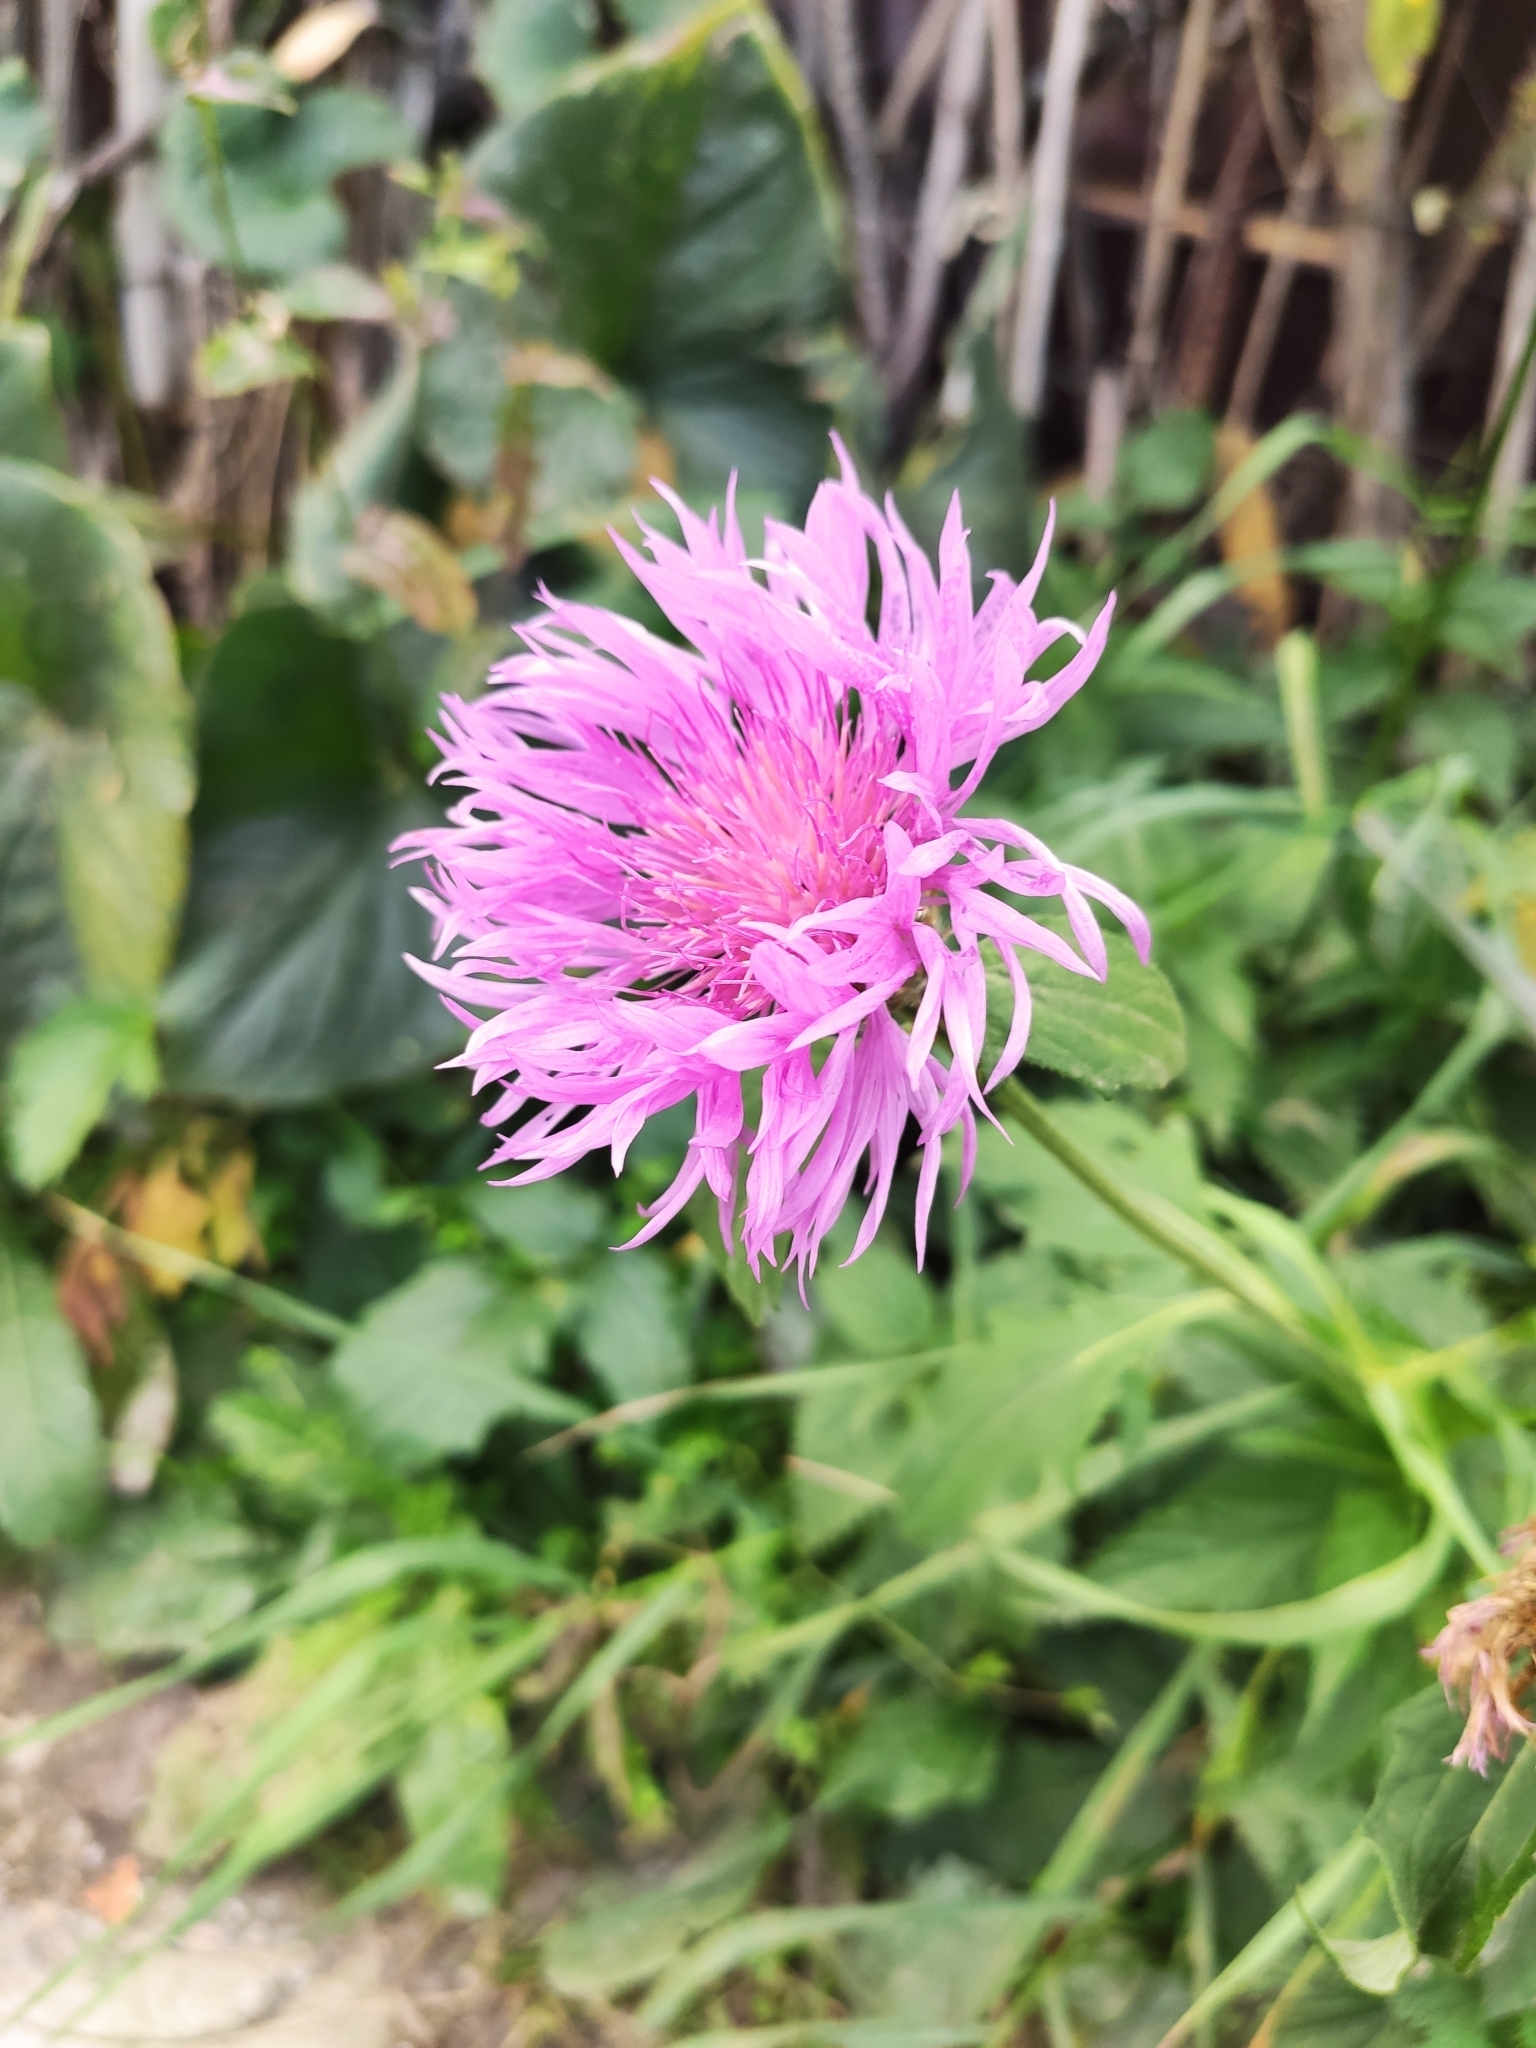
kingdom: Plantae
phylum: Tracheophyta
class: Magnoliopsida
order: Asterales
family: Asteraceae
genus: Psephellus
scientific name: Psephellus dealbatus
